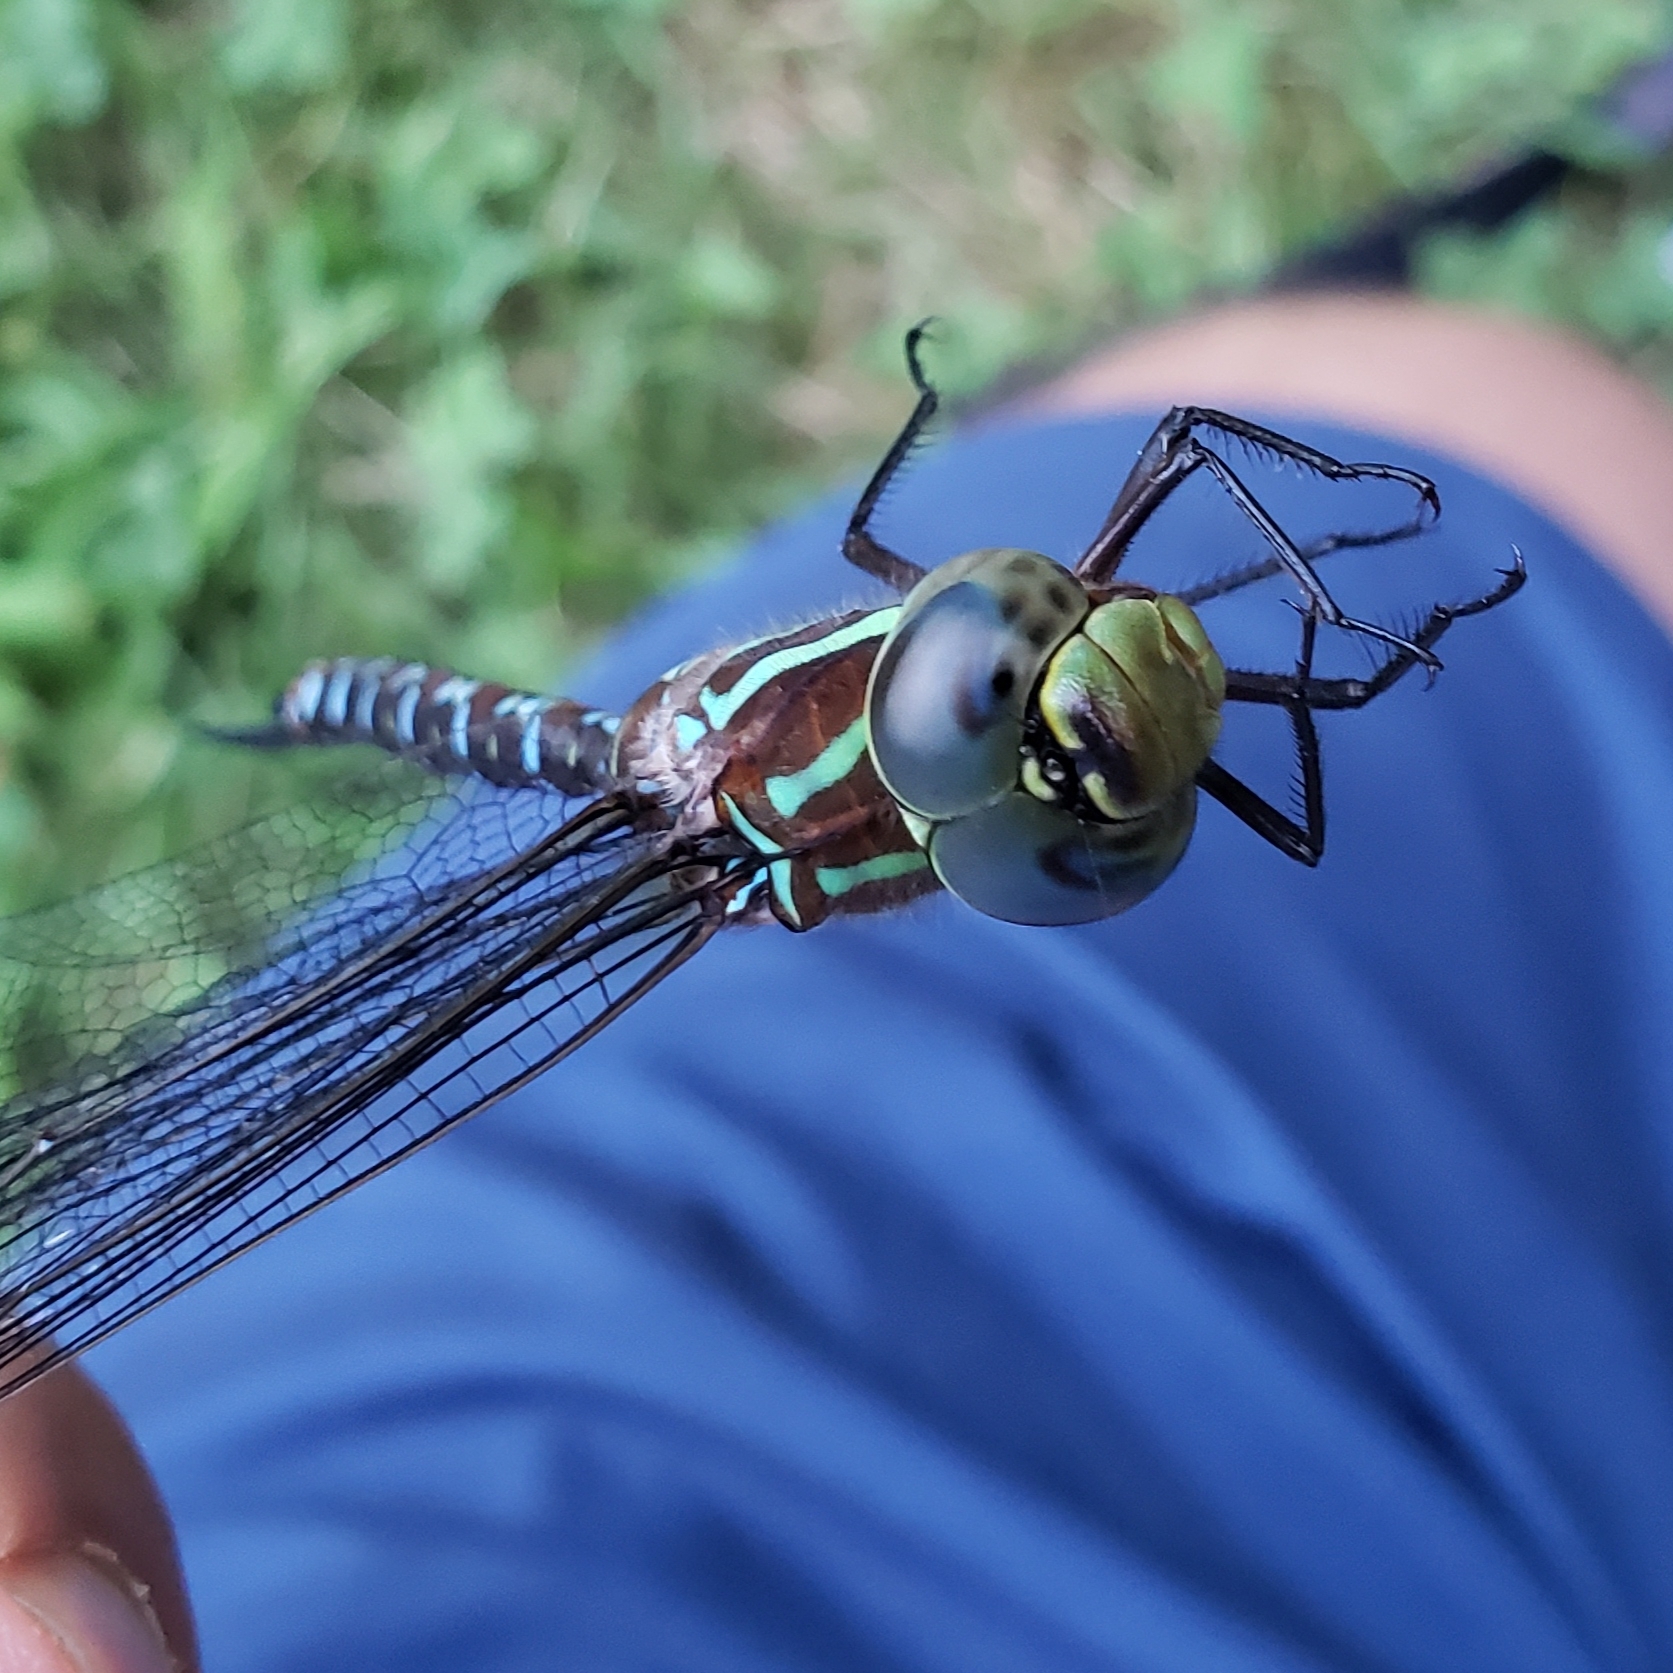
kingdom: Animalia
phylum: Arthropoda
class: Insecta
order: Odonata
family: Aeshnidae
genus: Aeshna
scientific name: Aeshna tuberculifera
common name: Aeschne à tubercules
